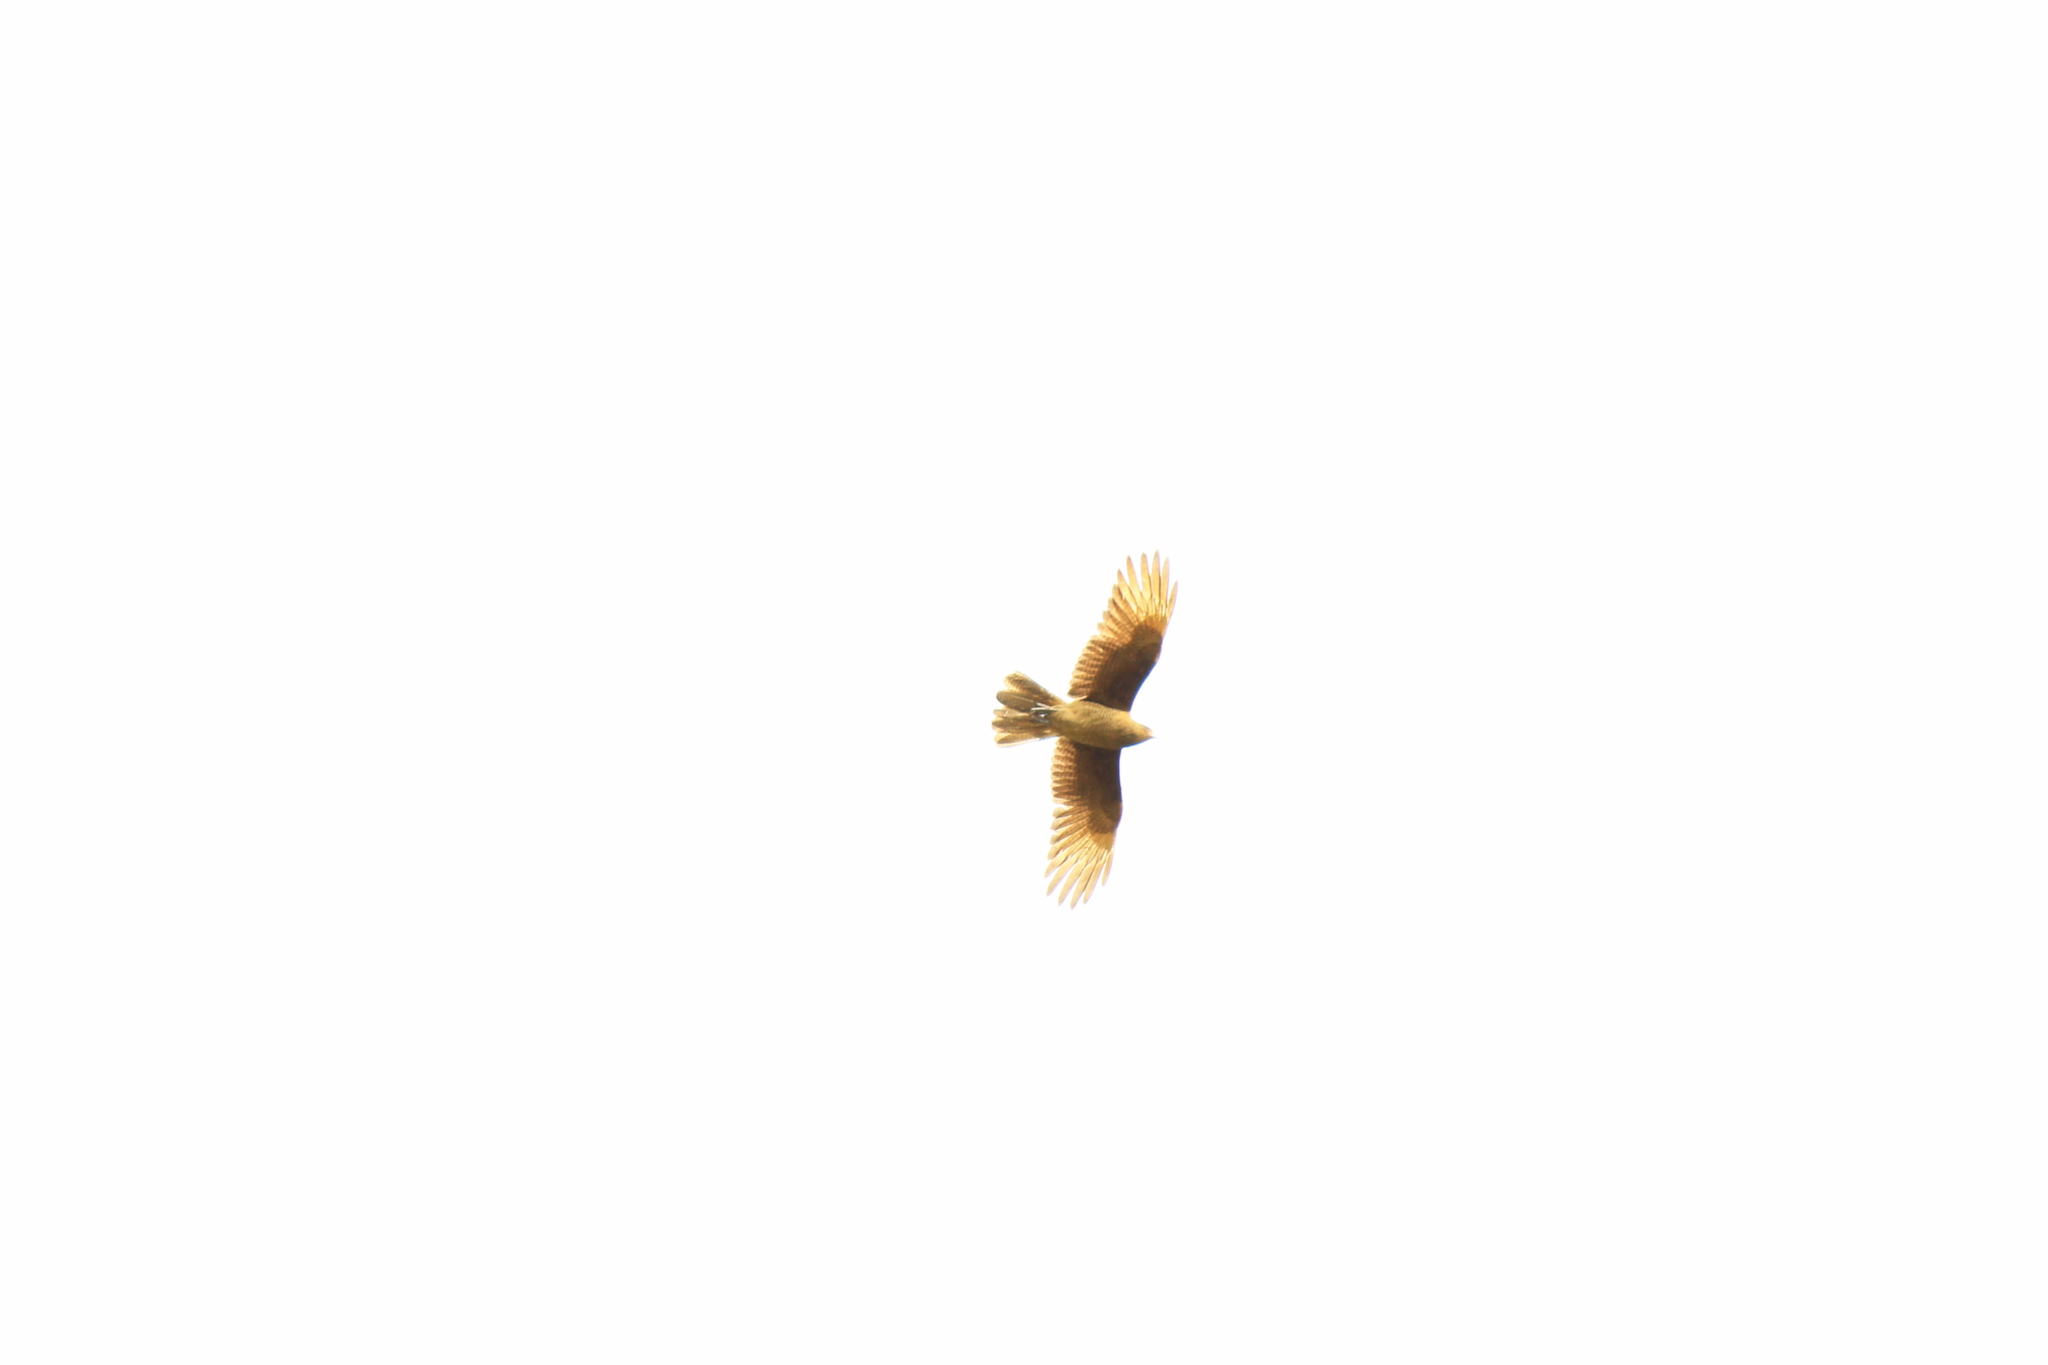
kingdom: Animalia
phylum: Chordata
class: Aves
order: Falconiformes
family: Falconidae
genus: Daptrius
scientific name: Daptrius
